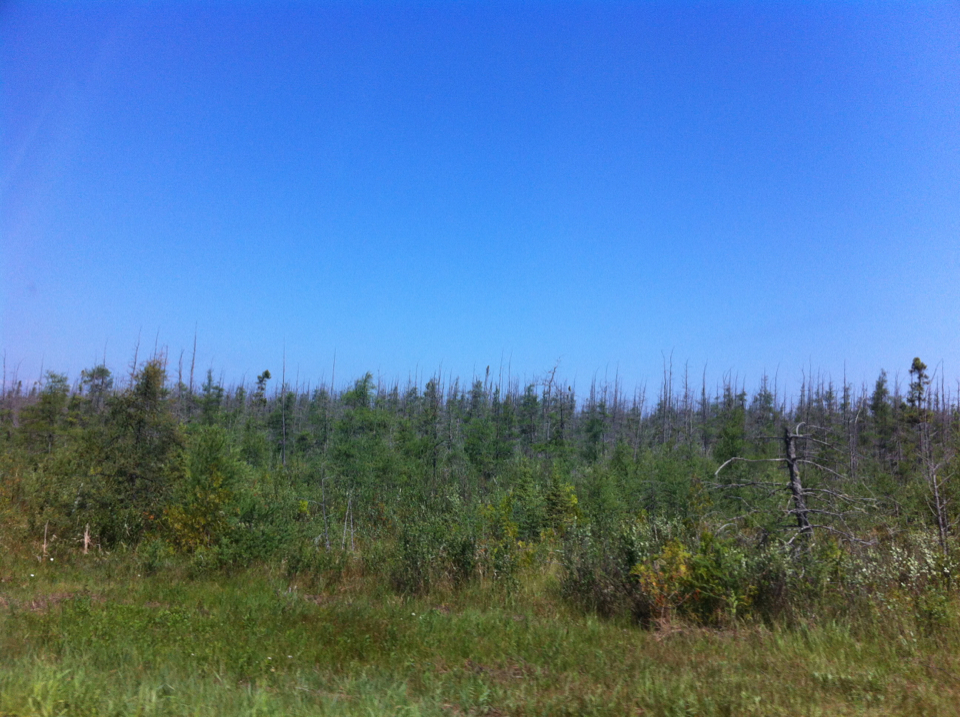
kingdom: Plantae
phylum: Tracheophyta
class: Pinopsida
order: Pinales
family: Pinaceae
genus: Larix
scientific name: Larix laricina
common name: American larch
